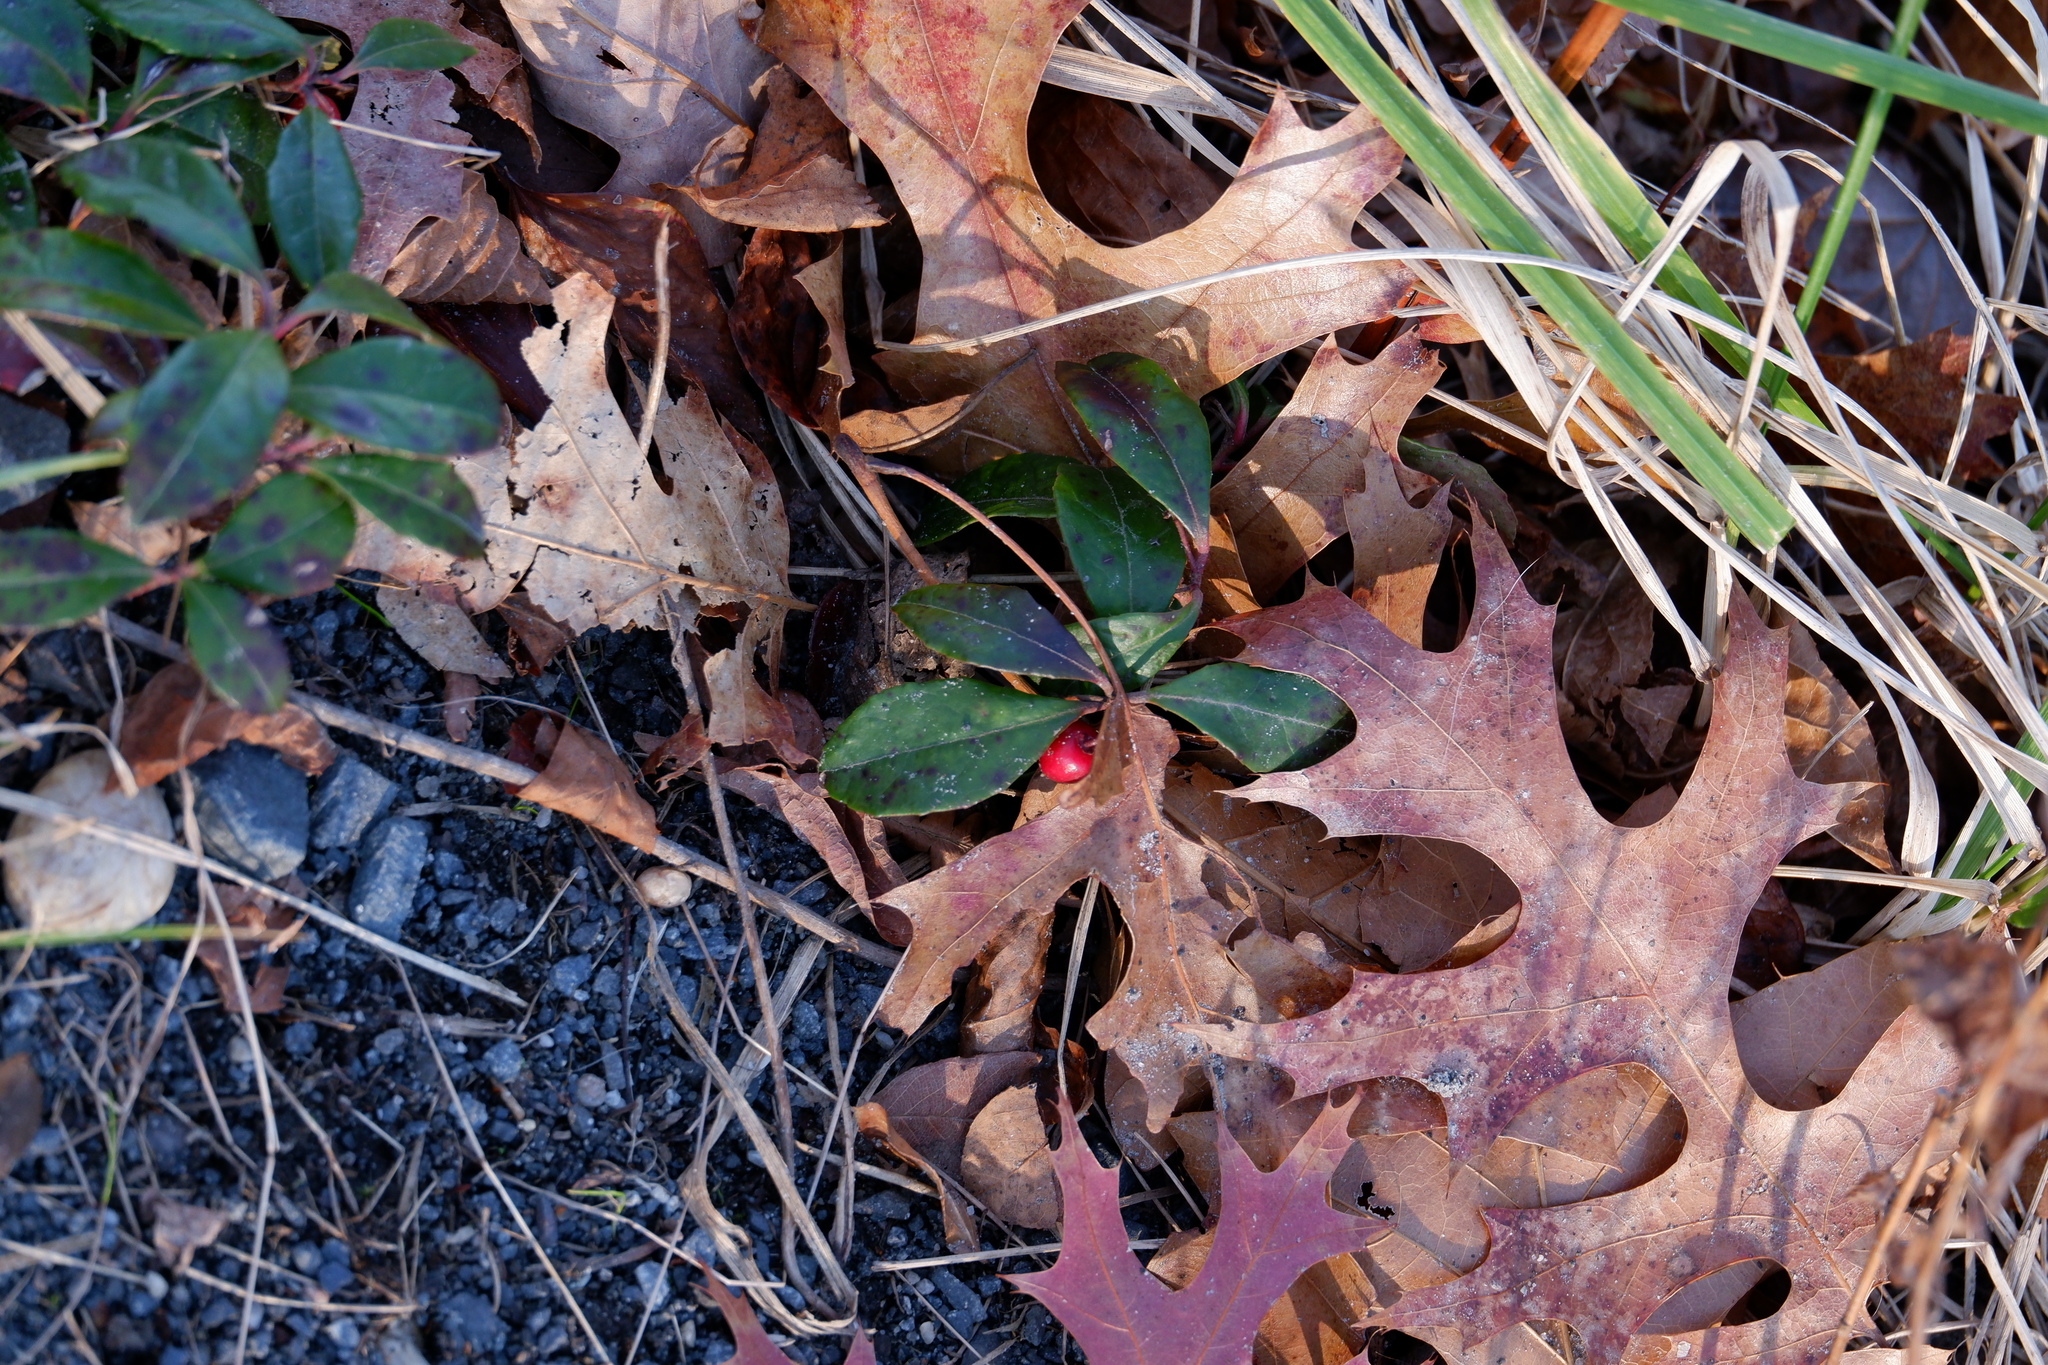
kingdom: Plantae
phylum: Tracheophyta
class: Magnoliopsida
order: Ericales
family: Ericaceae
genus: Gaultheria
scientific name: Gaultheria procumbens
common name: Checkerberry
